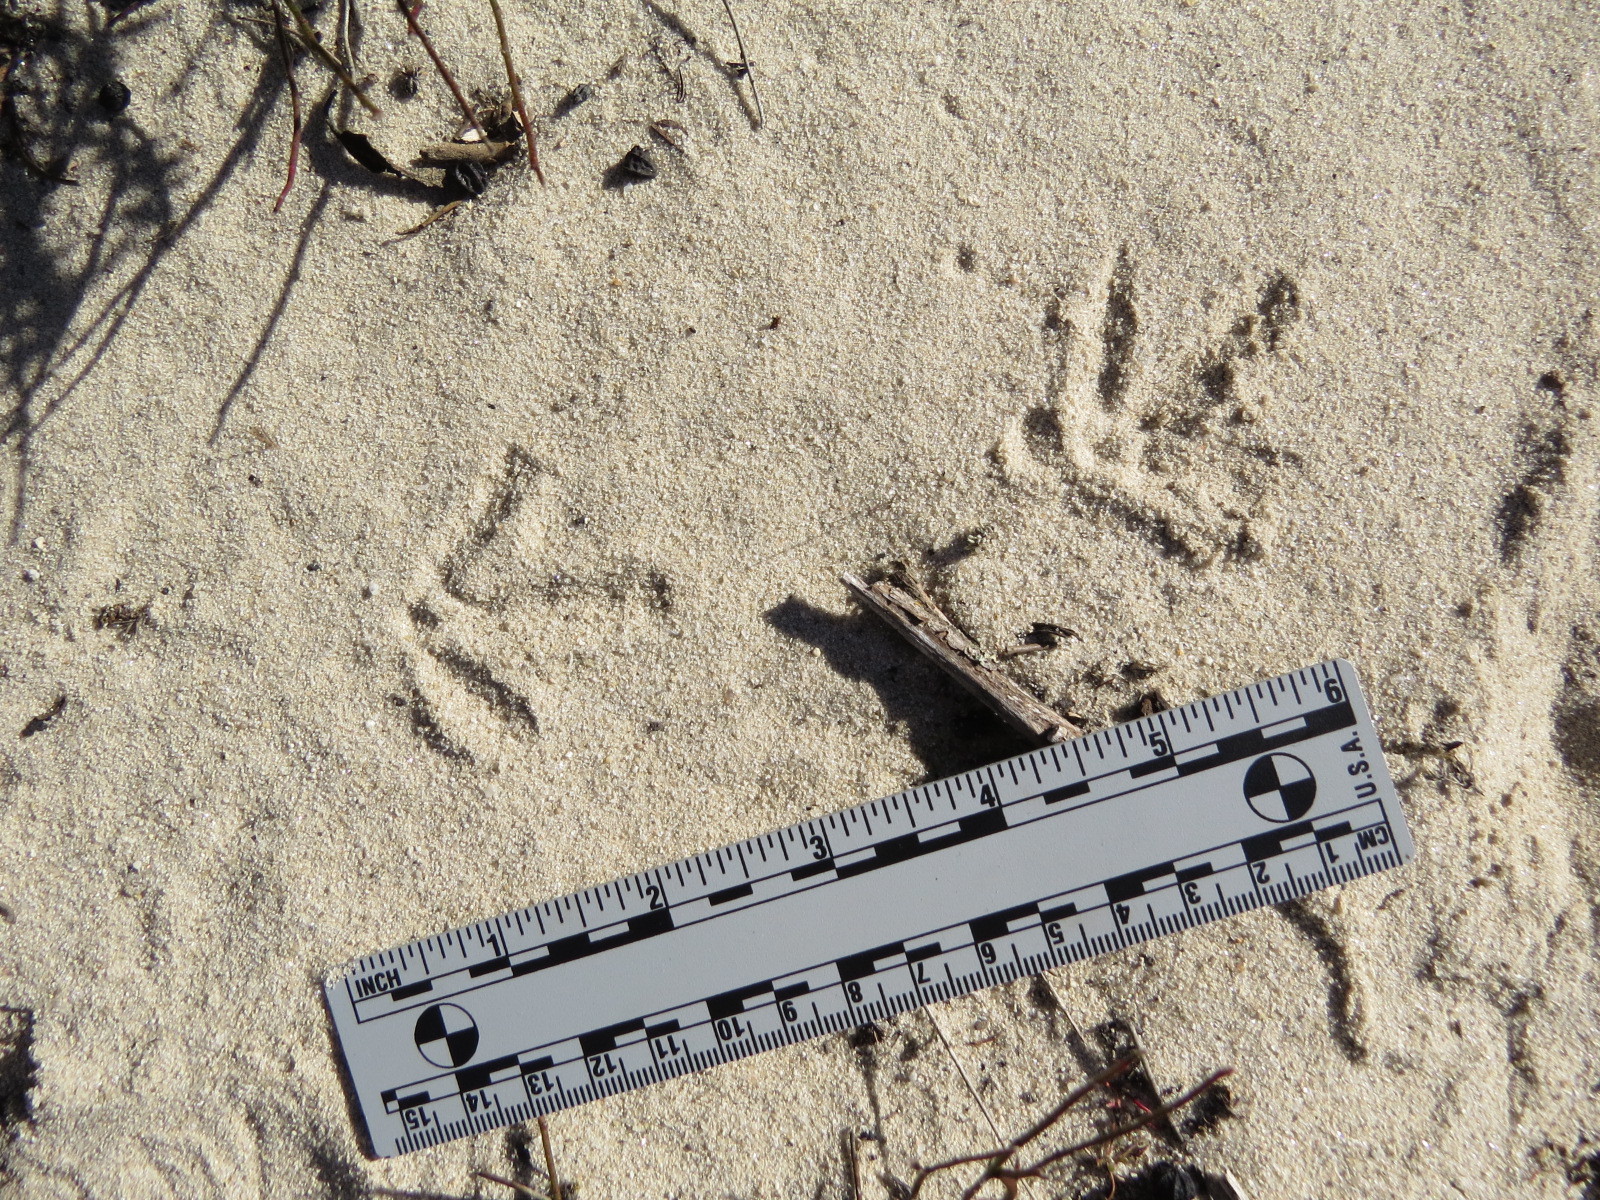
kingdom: Animalia
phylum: Chordata
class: Aves
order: Galliformes
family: Odontophoridae
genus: Callipepla
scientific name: Callipepla californica
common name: California quail
